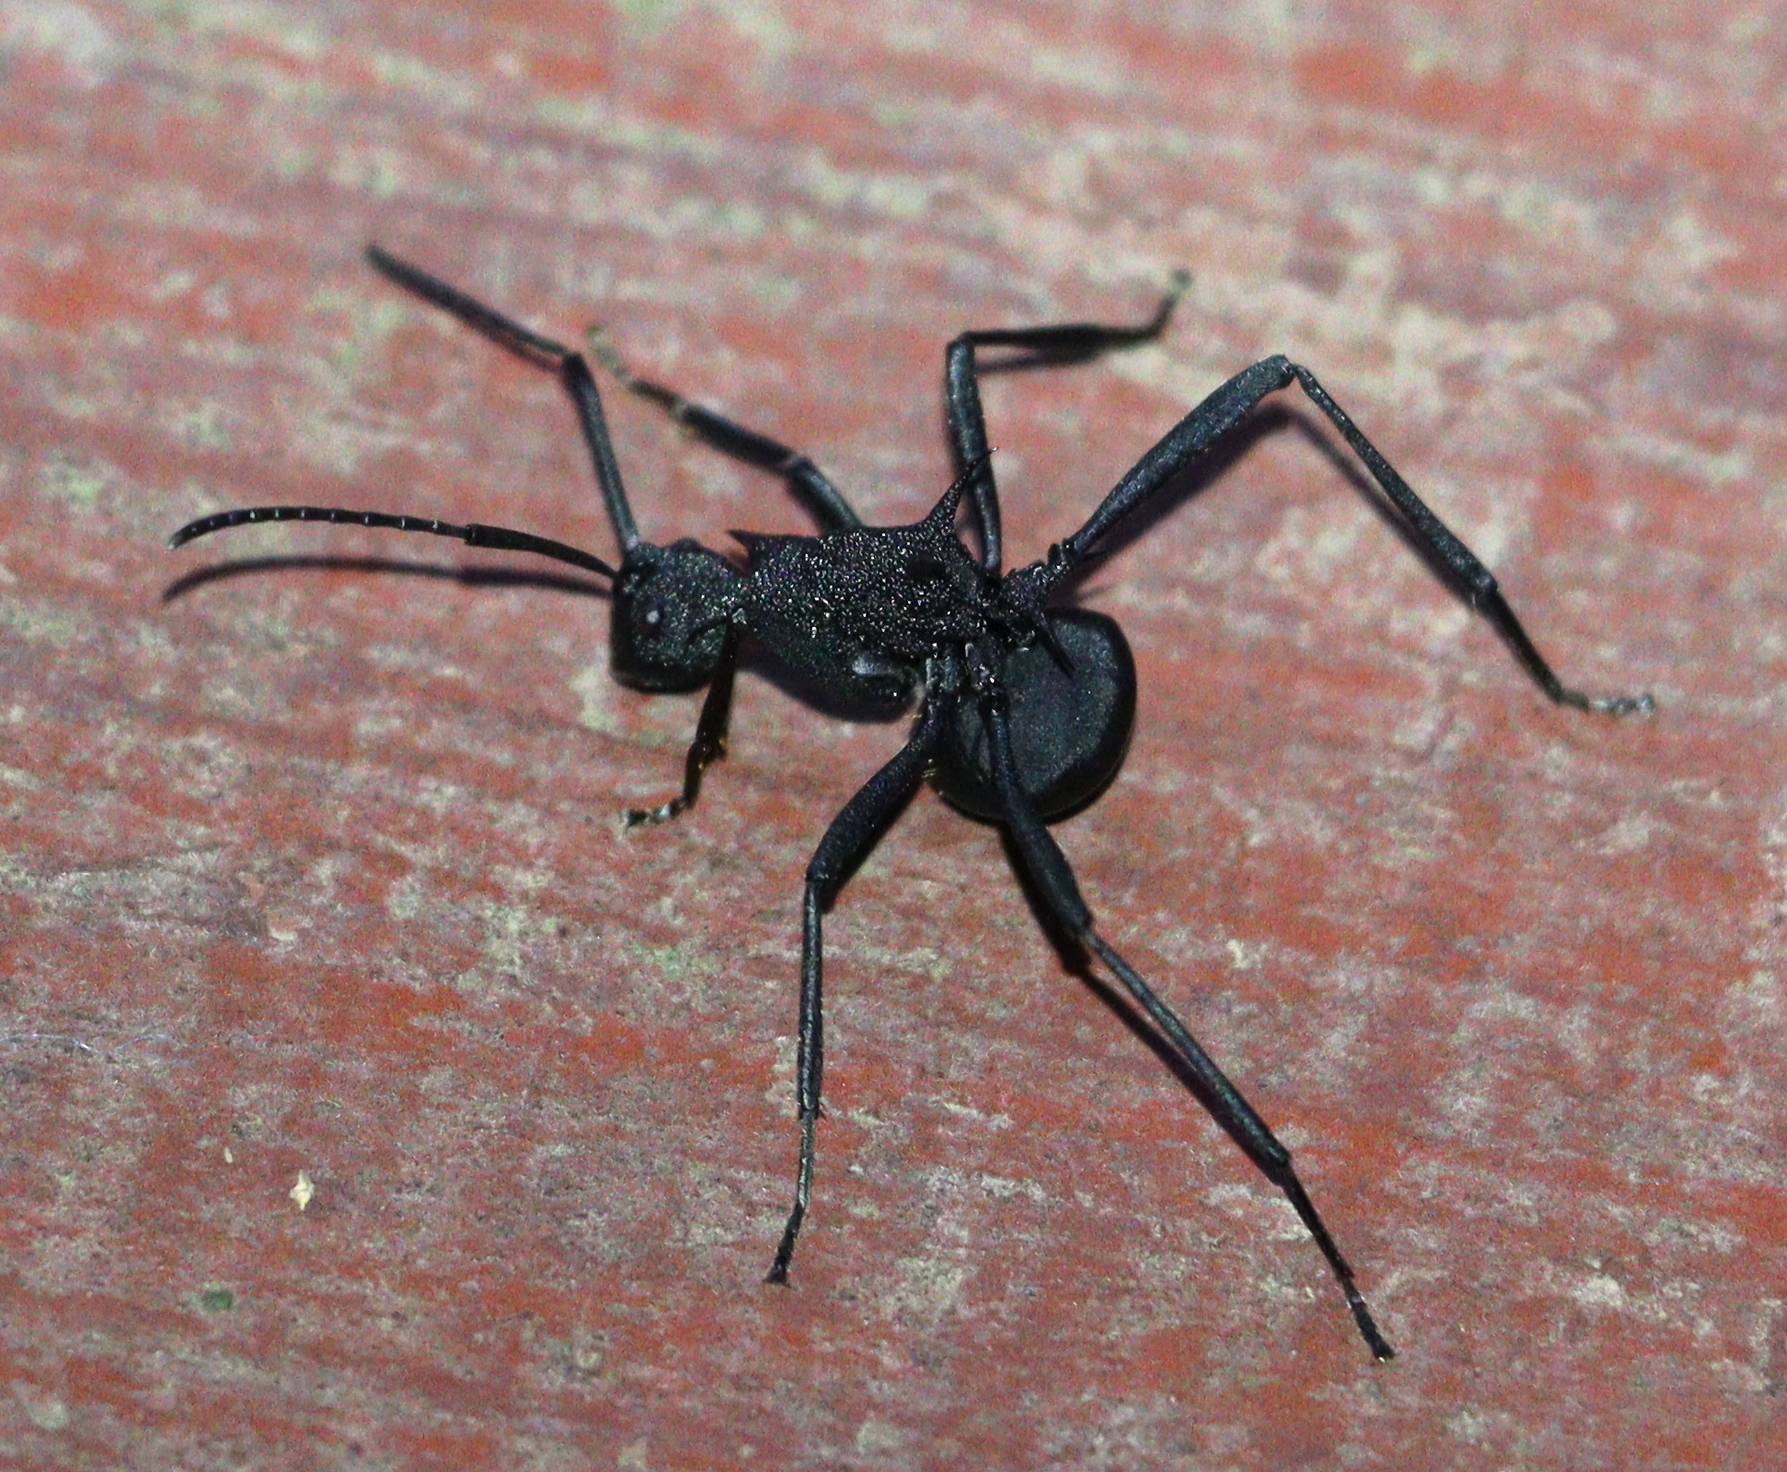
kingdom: Animalia
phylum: Arthropoda
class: Insecta
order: Hymenoptera
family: Formicidae
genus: Polyrhachis
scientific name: Polyrhachis armata
